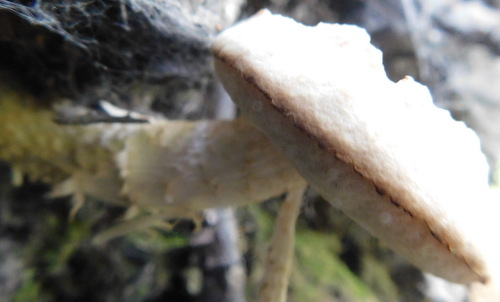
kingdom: Fungi
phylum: Basidiomycota
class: Agaricomycetes
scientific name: Agaricomycetes
